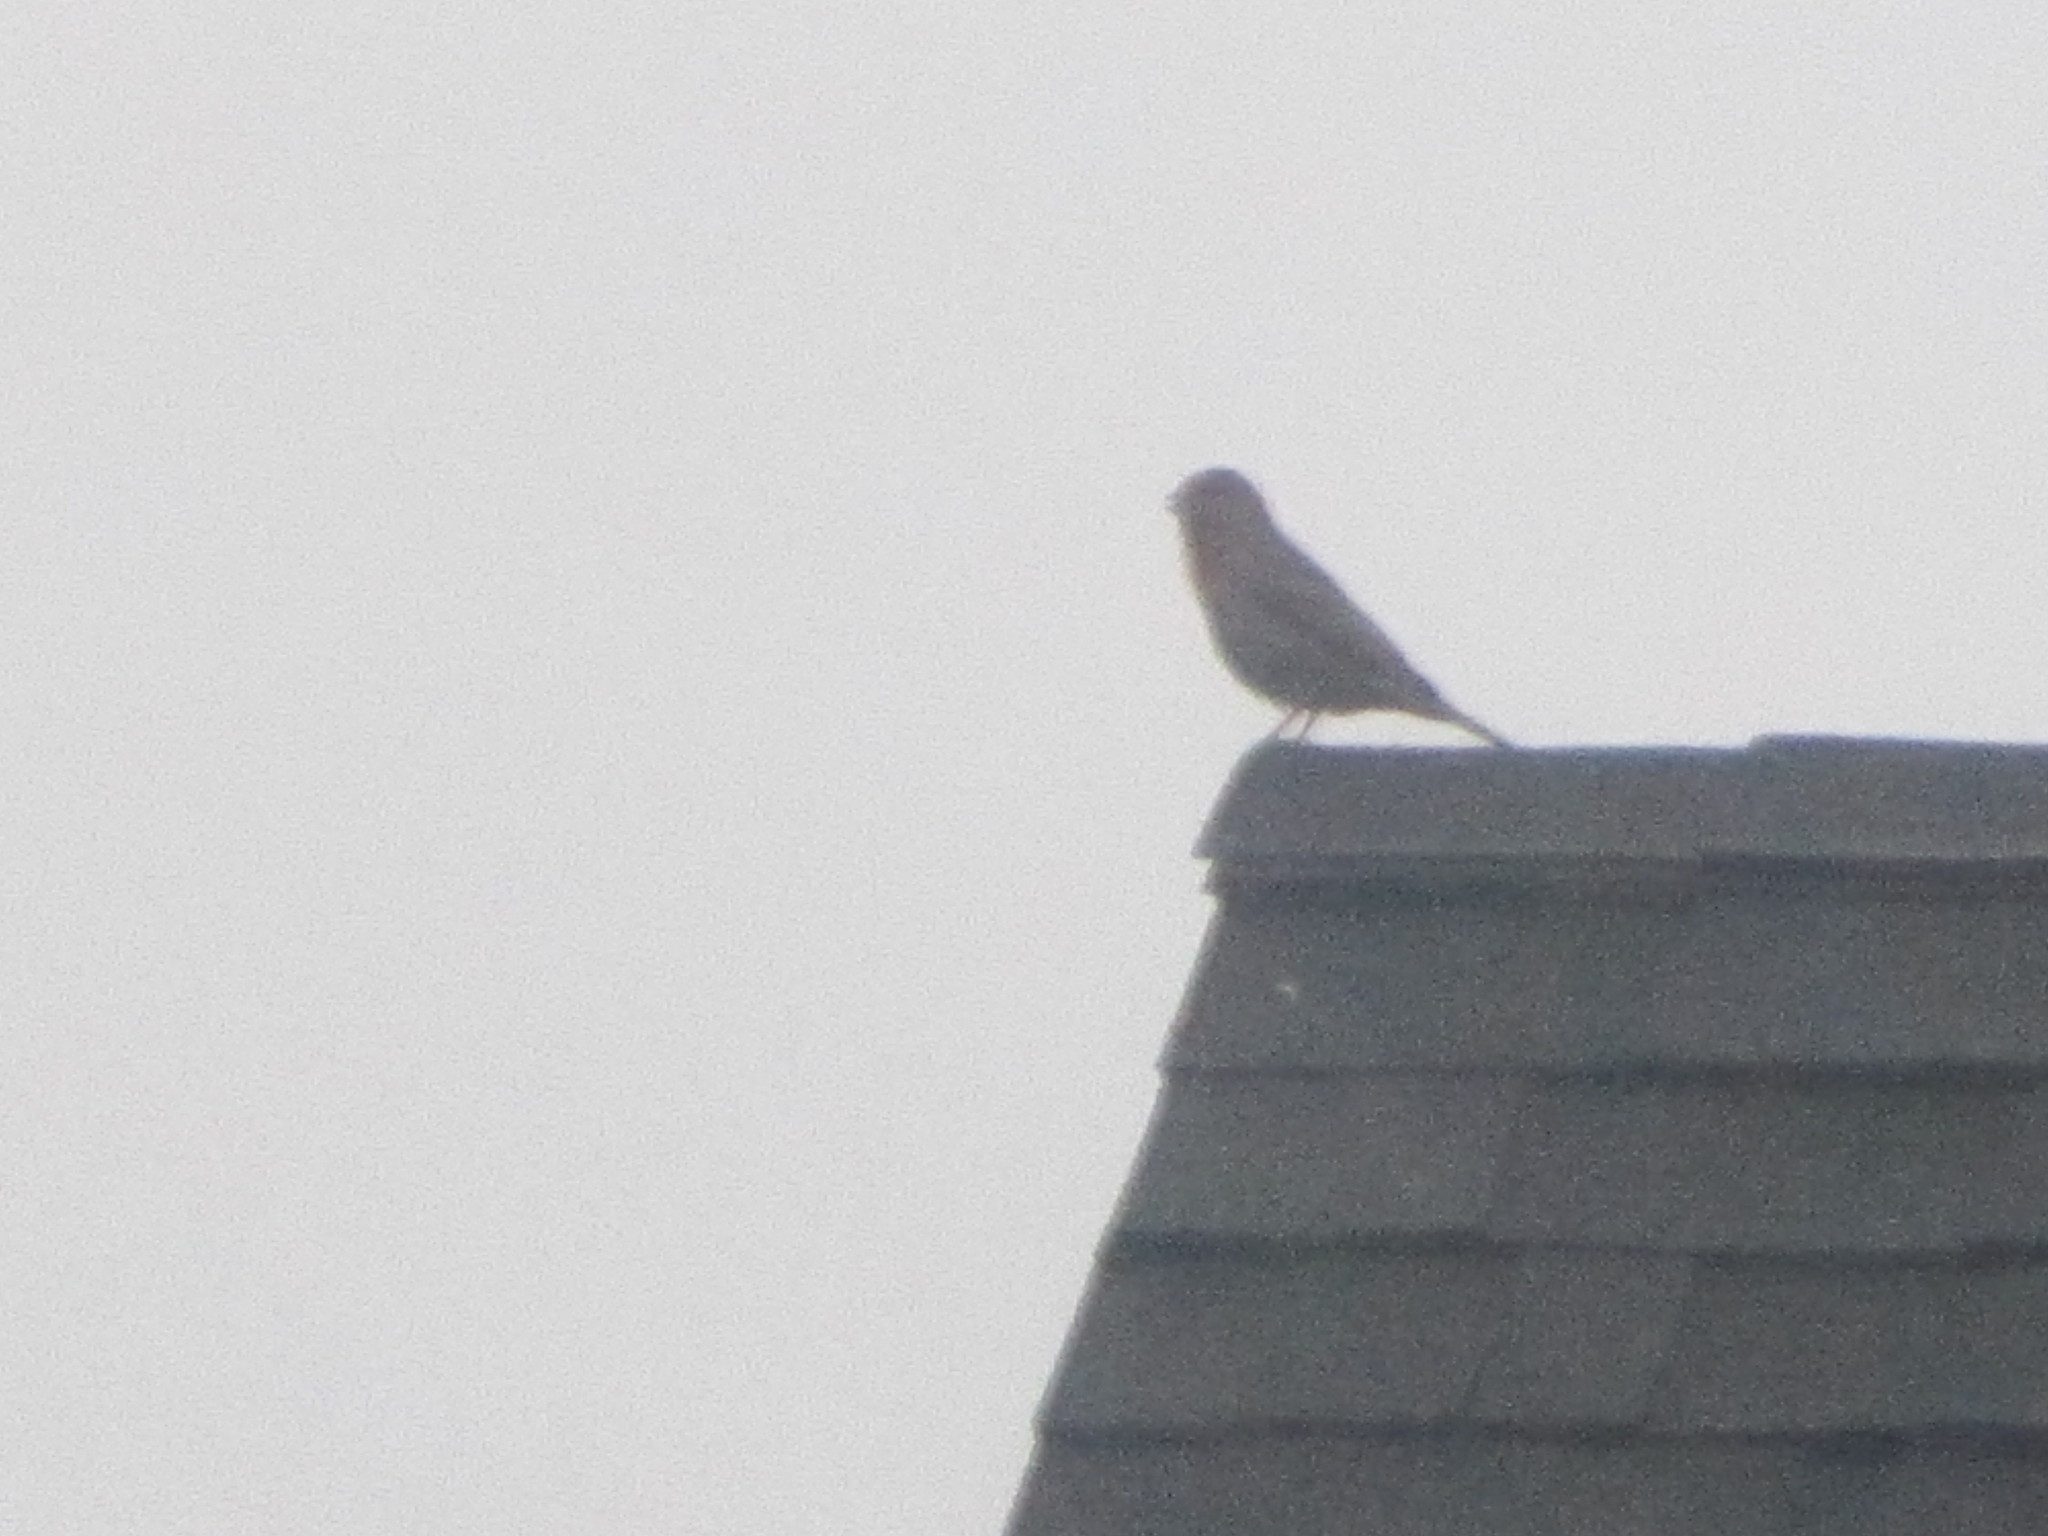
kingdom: Animalia
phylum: Chordata
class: Aves
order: Passeriformes
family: Fringillidae
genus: Haemorhous
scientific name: Haemorhous mexicanus
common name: House finch
